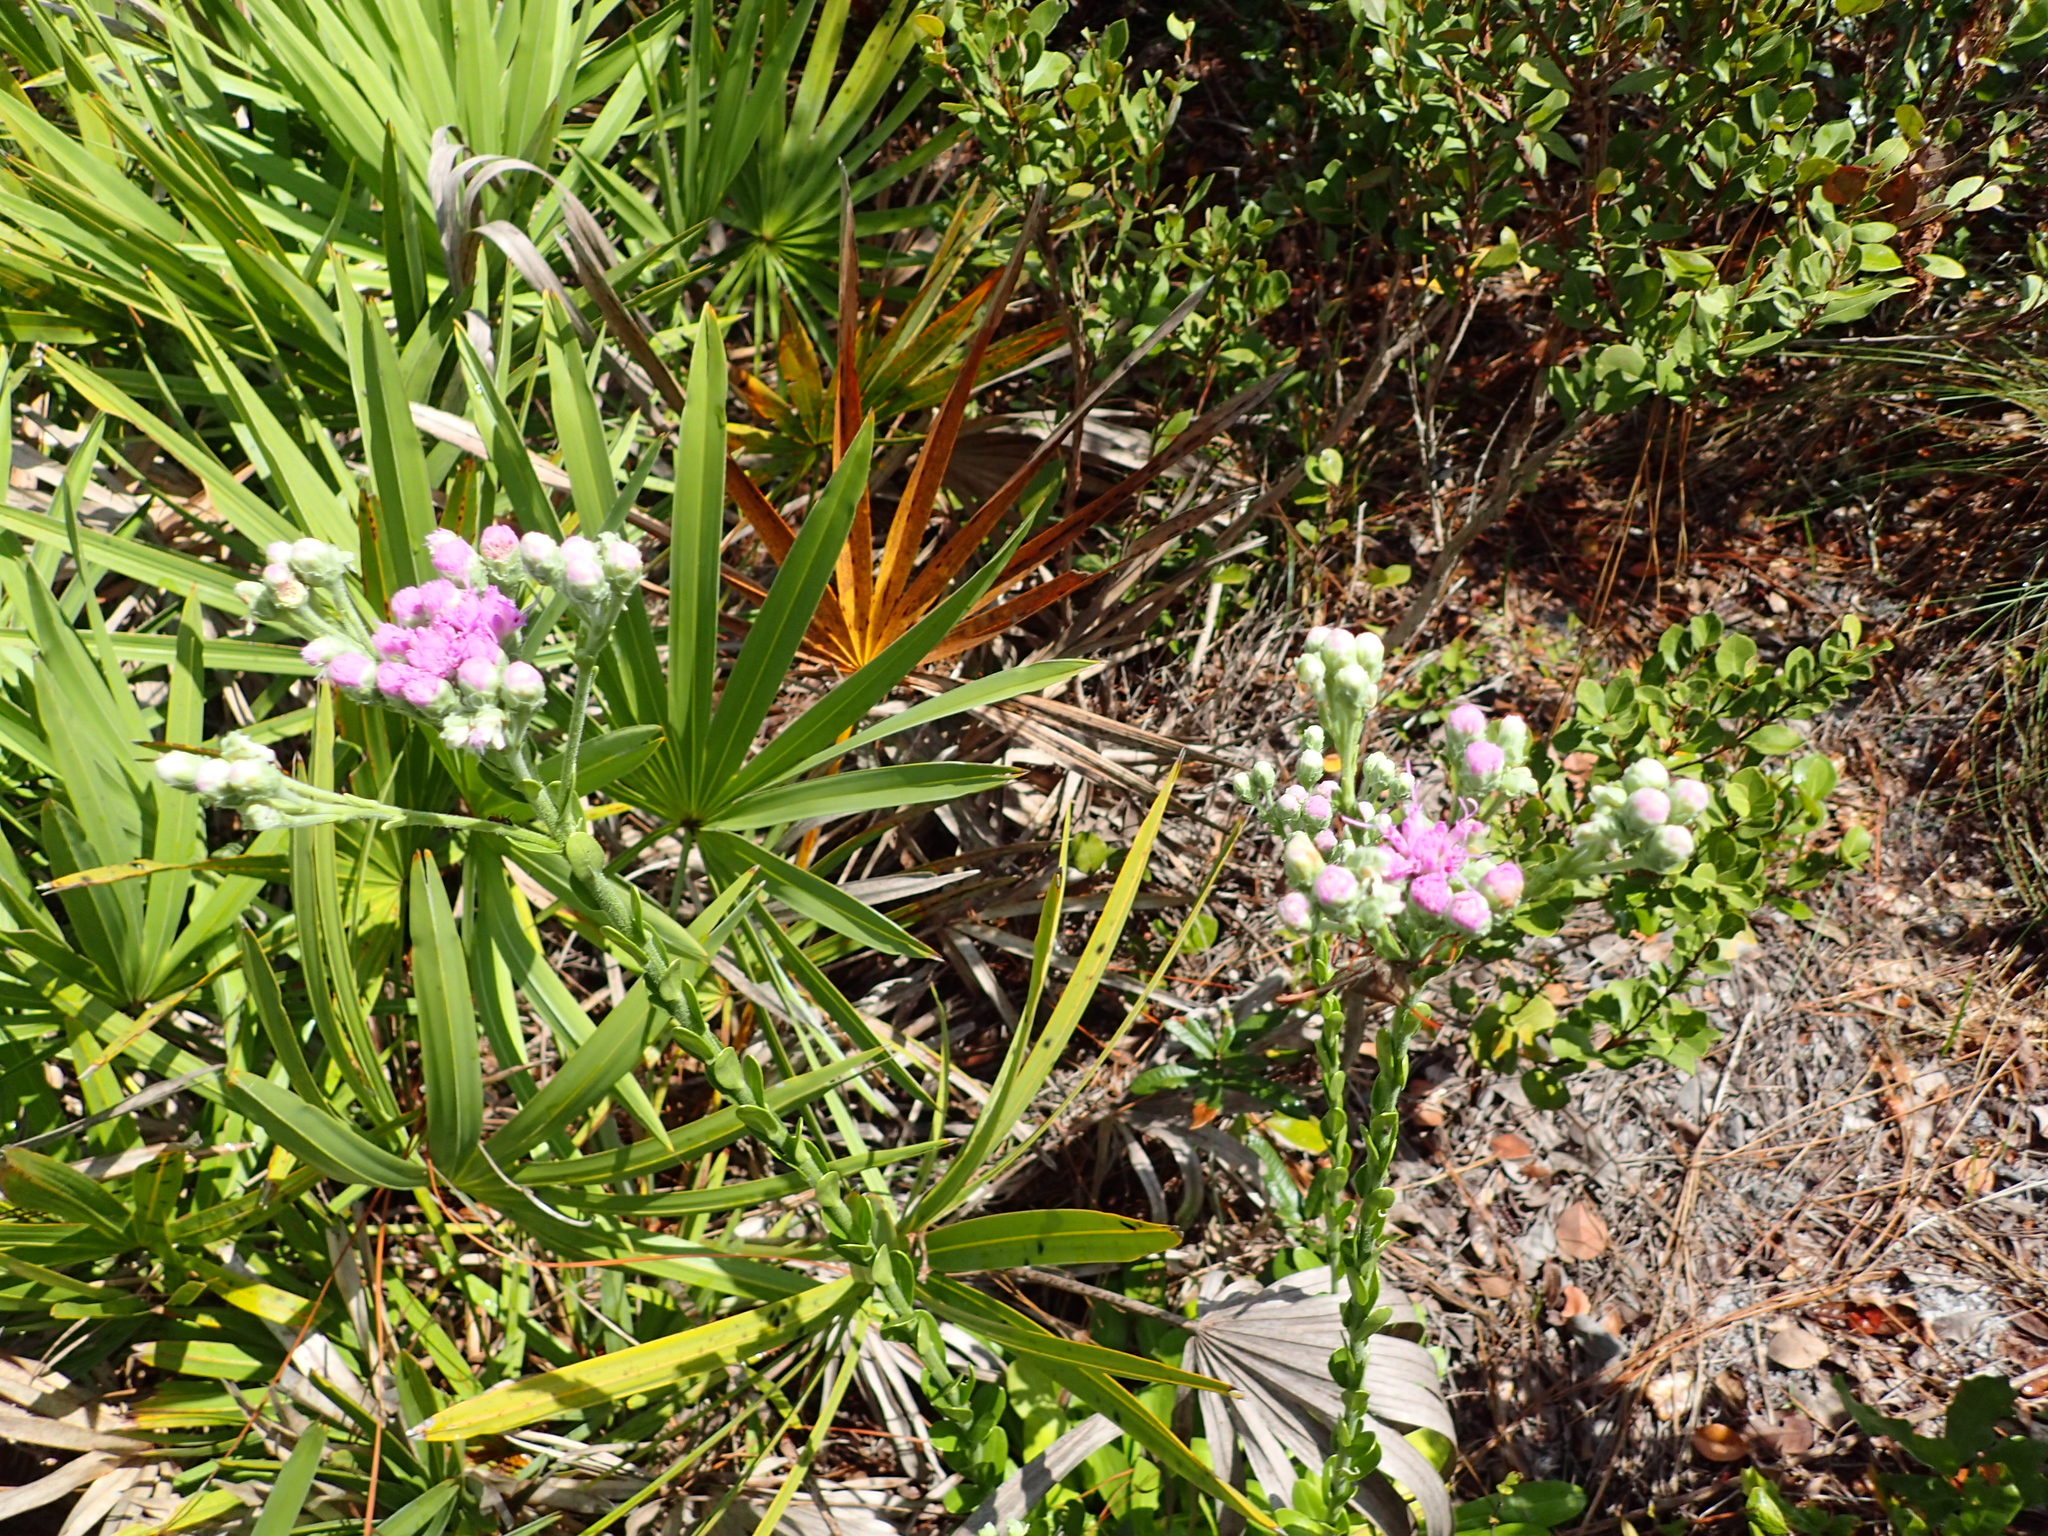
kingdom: Plantae
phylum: Tracheophyta
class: Magnoliopsida
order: Asterales
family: Asteraceae
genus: Carphephorus
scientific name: Carphephorus corymbosus
